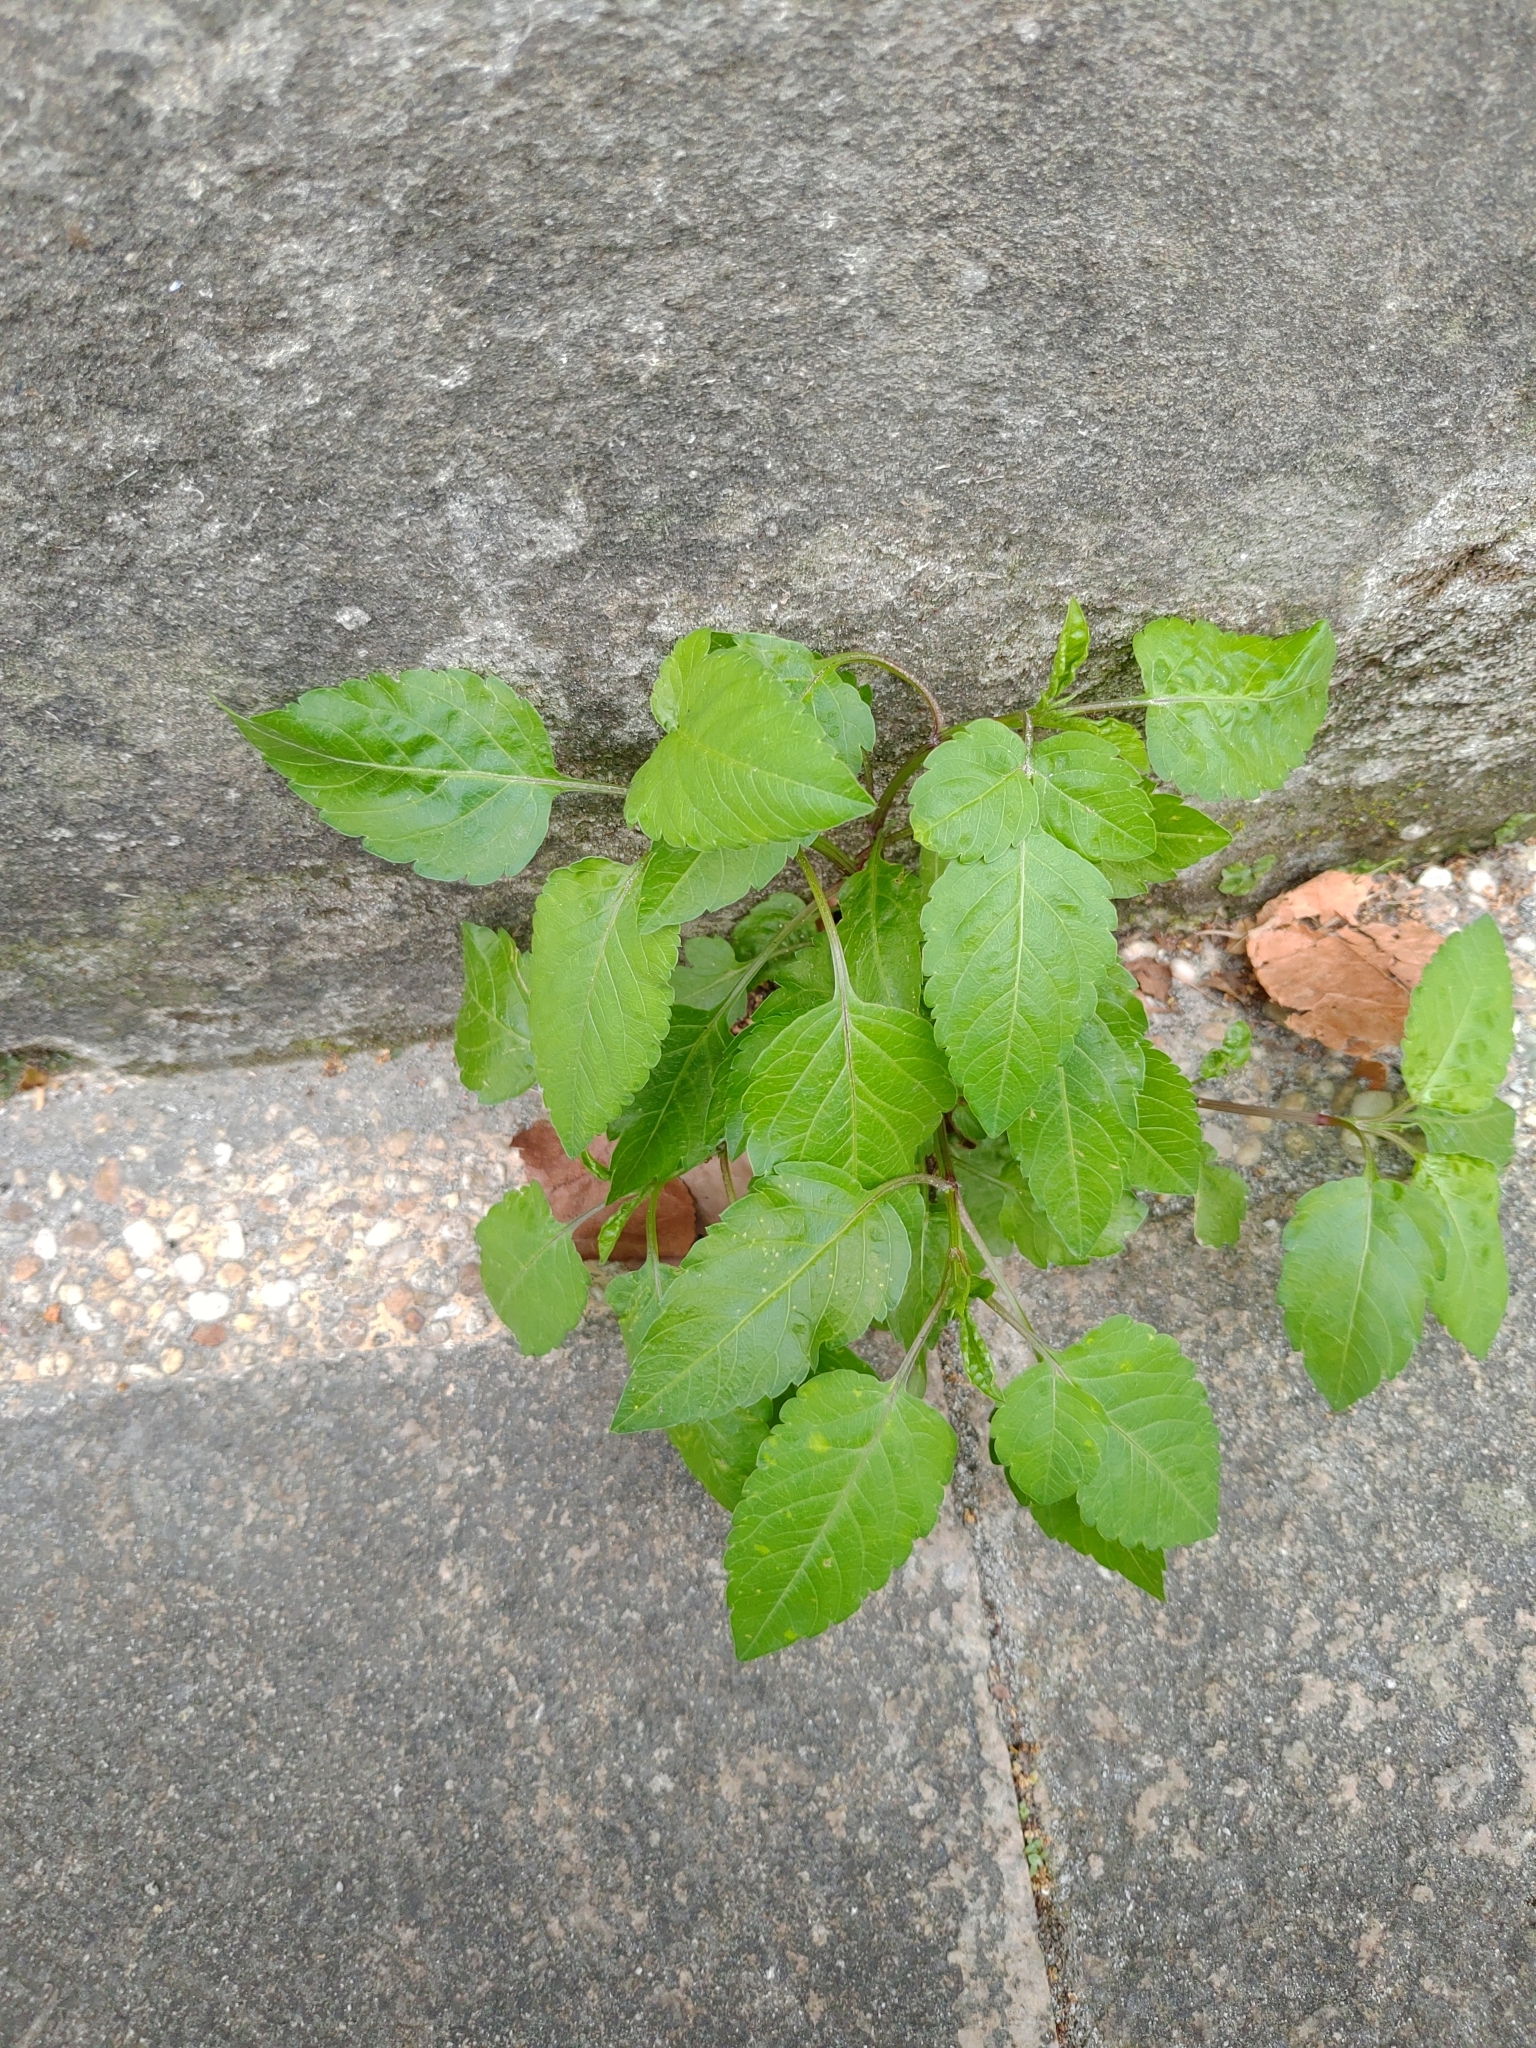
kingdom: Plantae
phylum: Tracheophyta
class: Magnoliopsida
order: Asterales
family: Asteraceae
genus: Bidens
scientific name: Bidens alba
